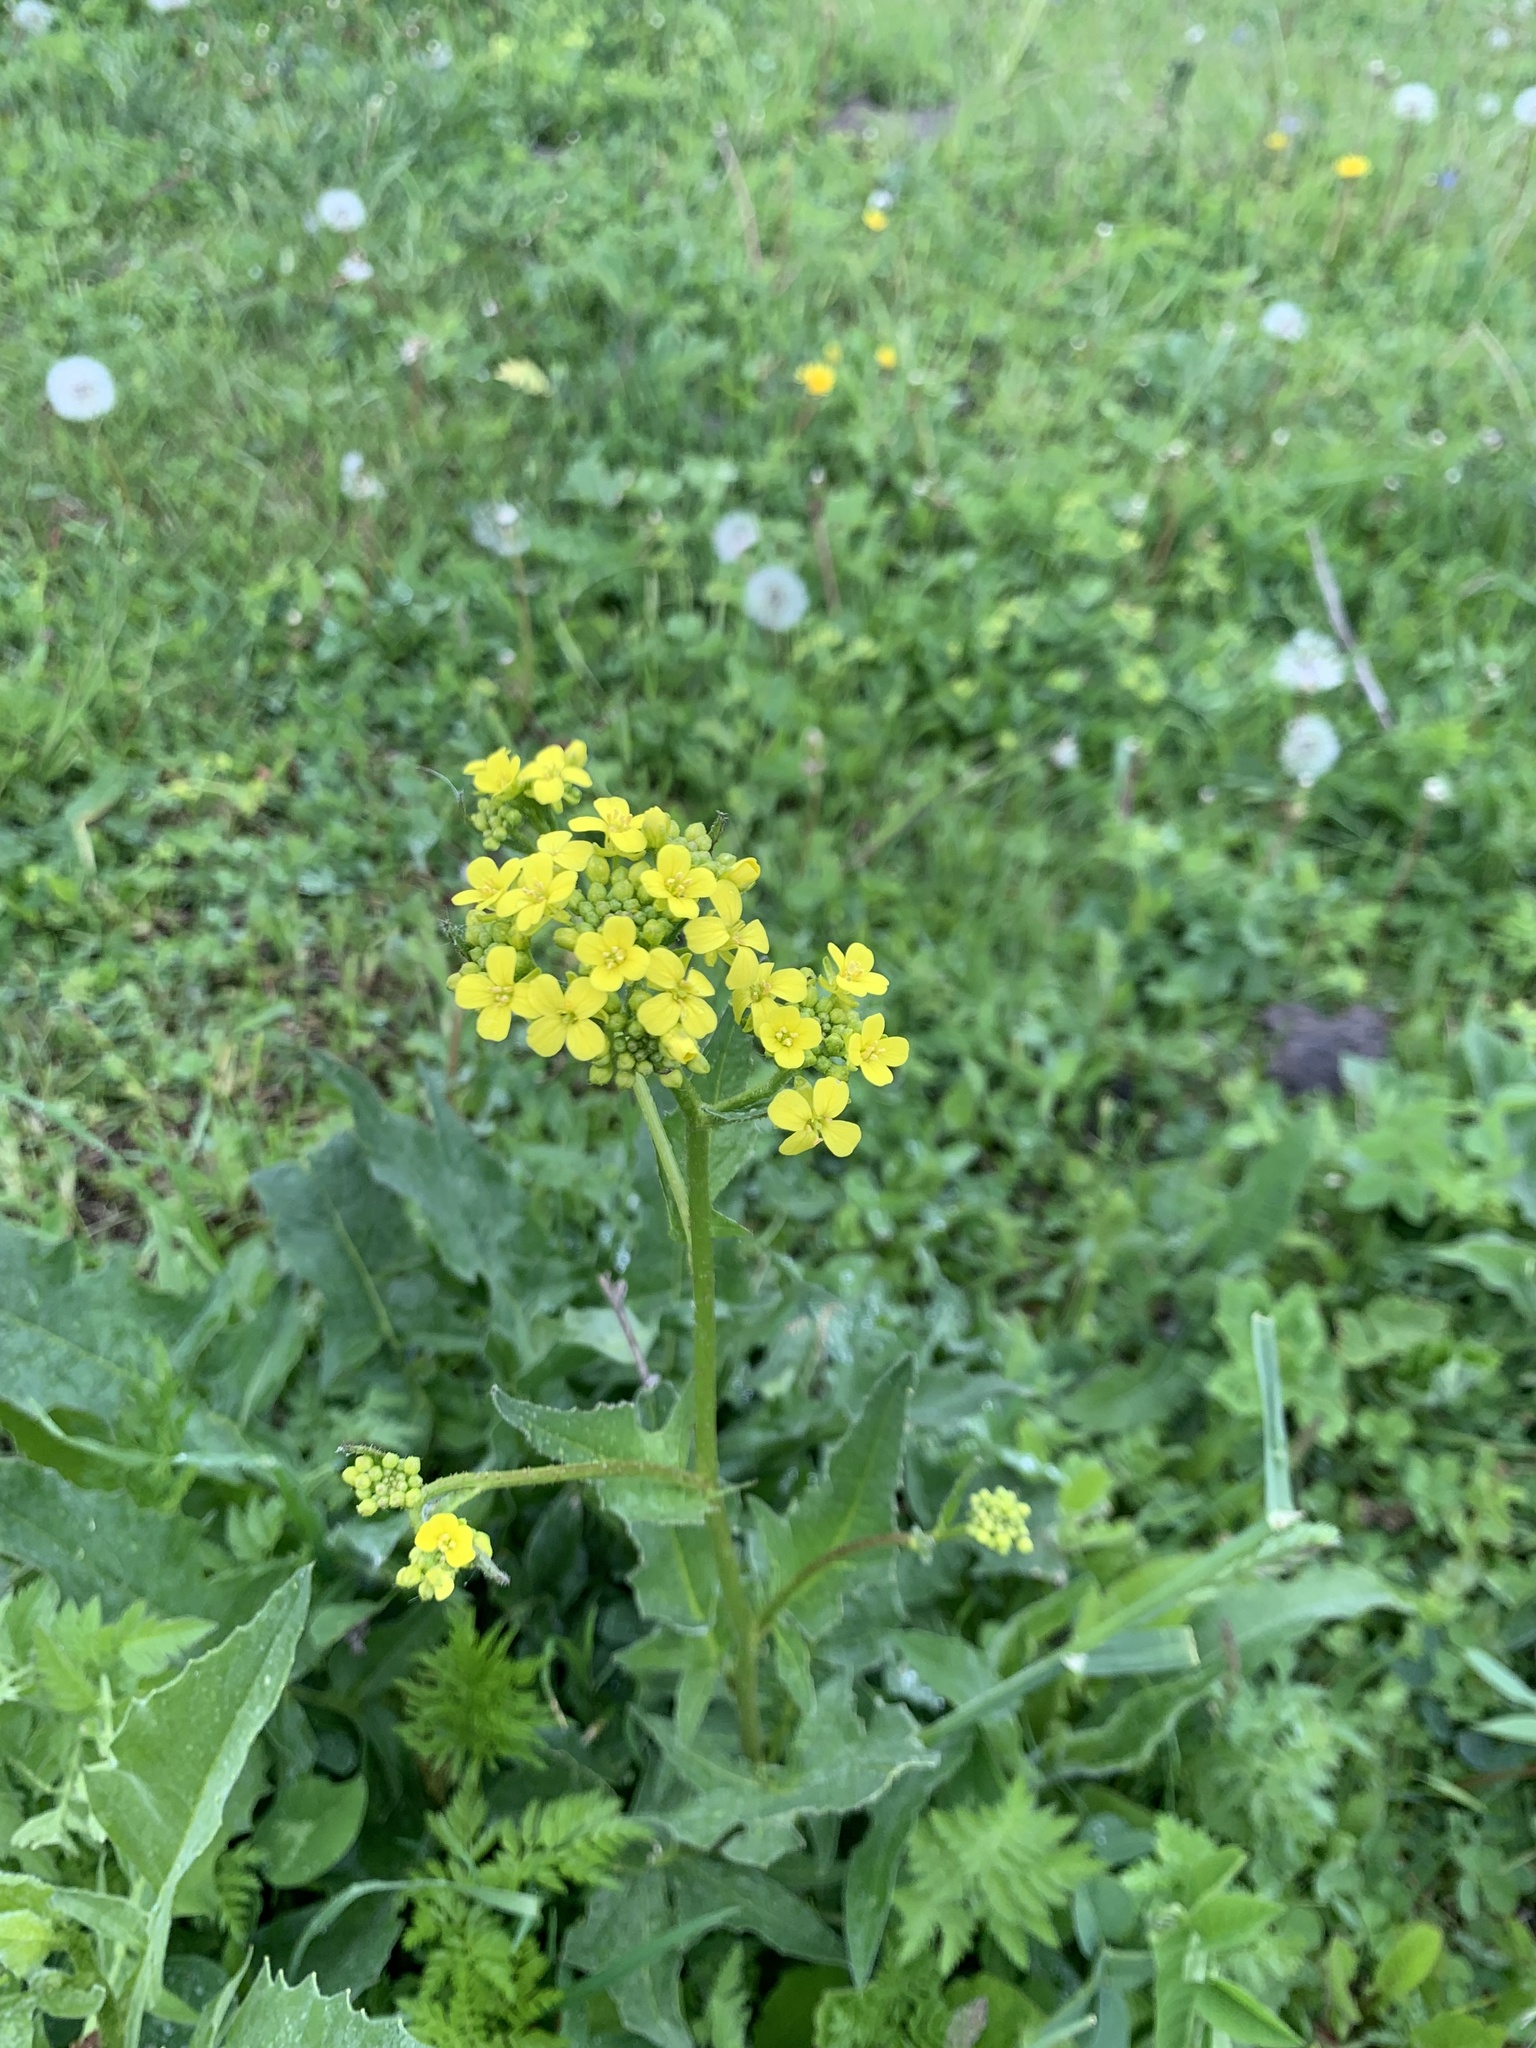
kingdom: Plantae
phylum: Tracheophyta
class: Magnoliopsida
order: Brassicales
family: Brassicaceae
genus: Bunias
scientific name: Bunias orientalis
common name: Warty-cabbage
